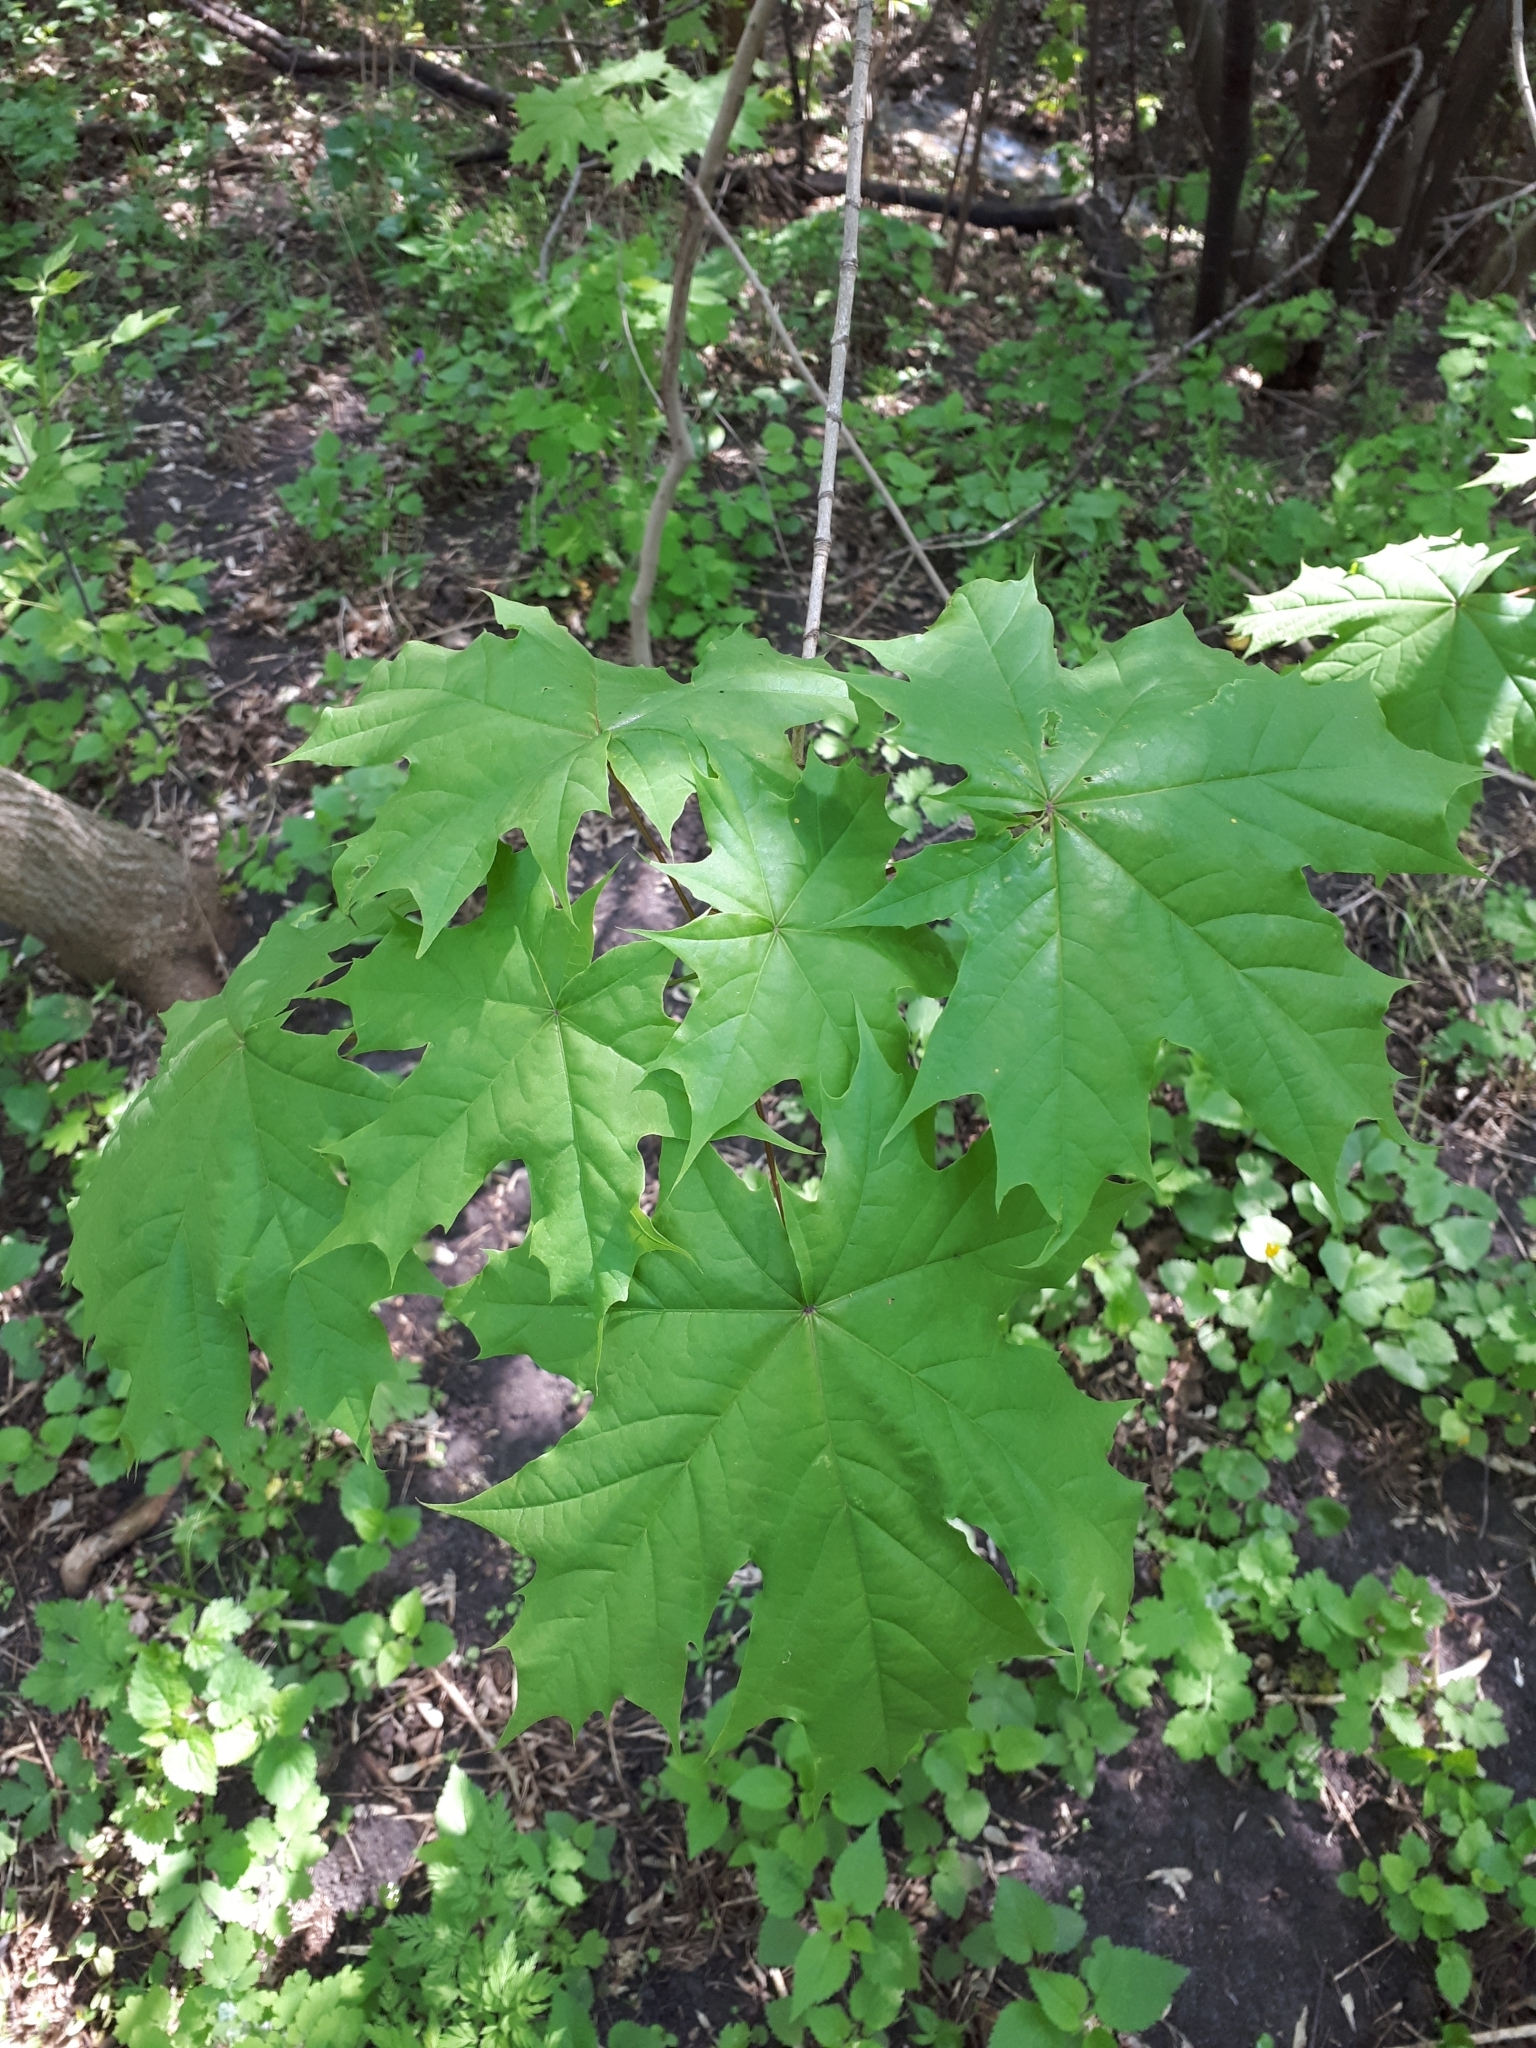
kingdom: Plantae
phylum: Tracheophyta
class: Magnoliopsida
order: Sapindales
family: Sapindaceae
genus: Acer
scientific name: Acer platanoides
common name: Norway maple
